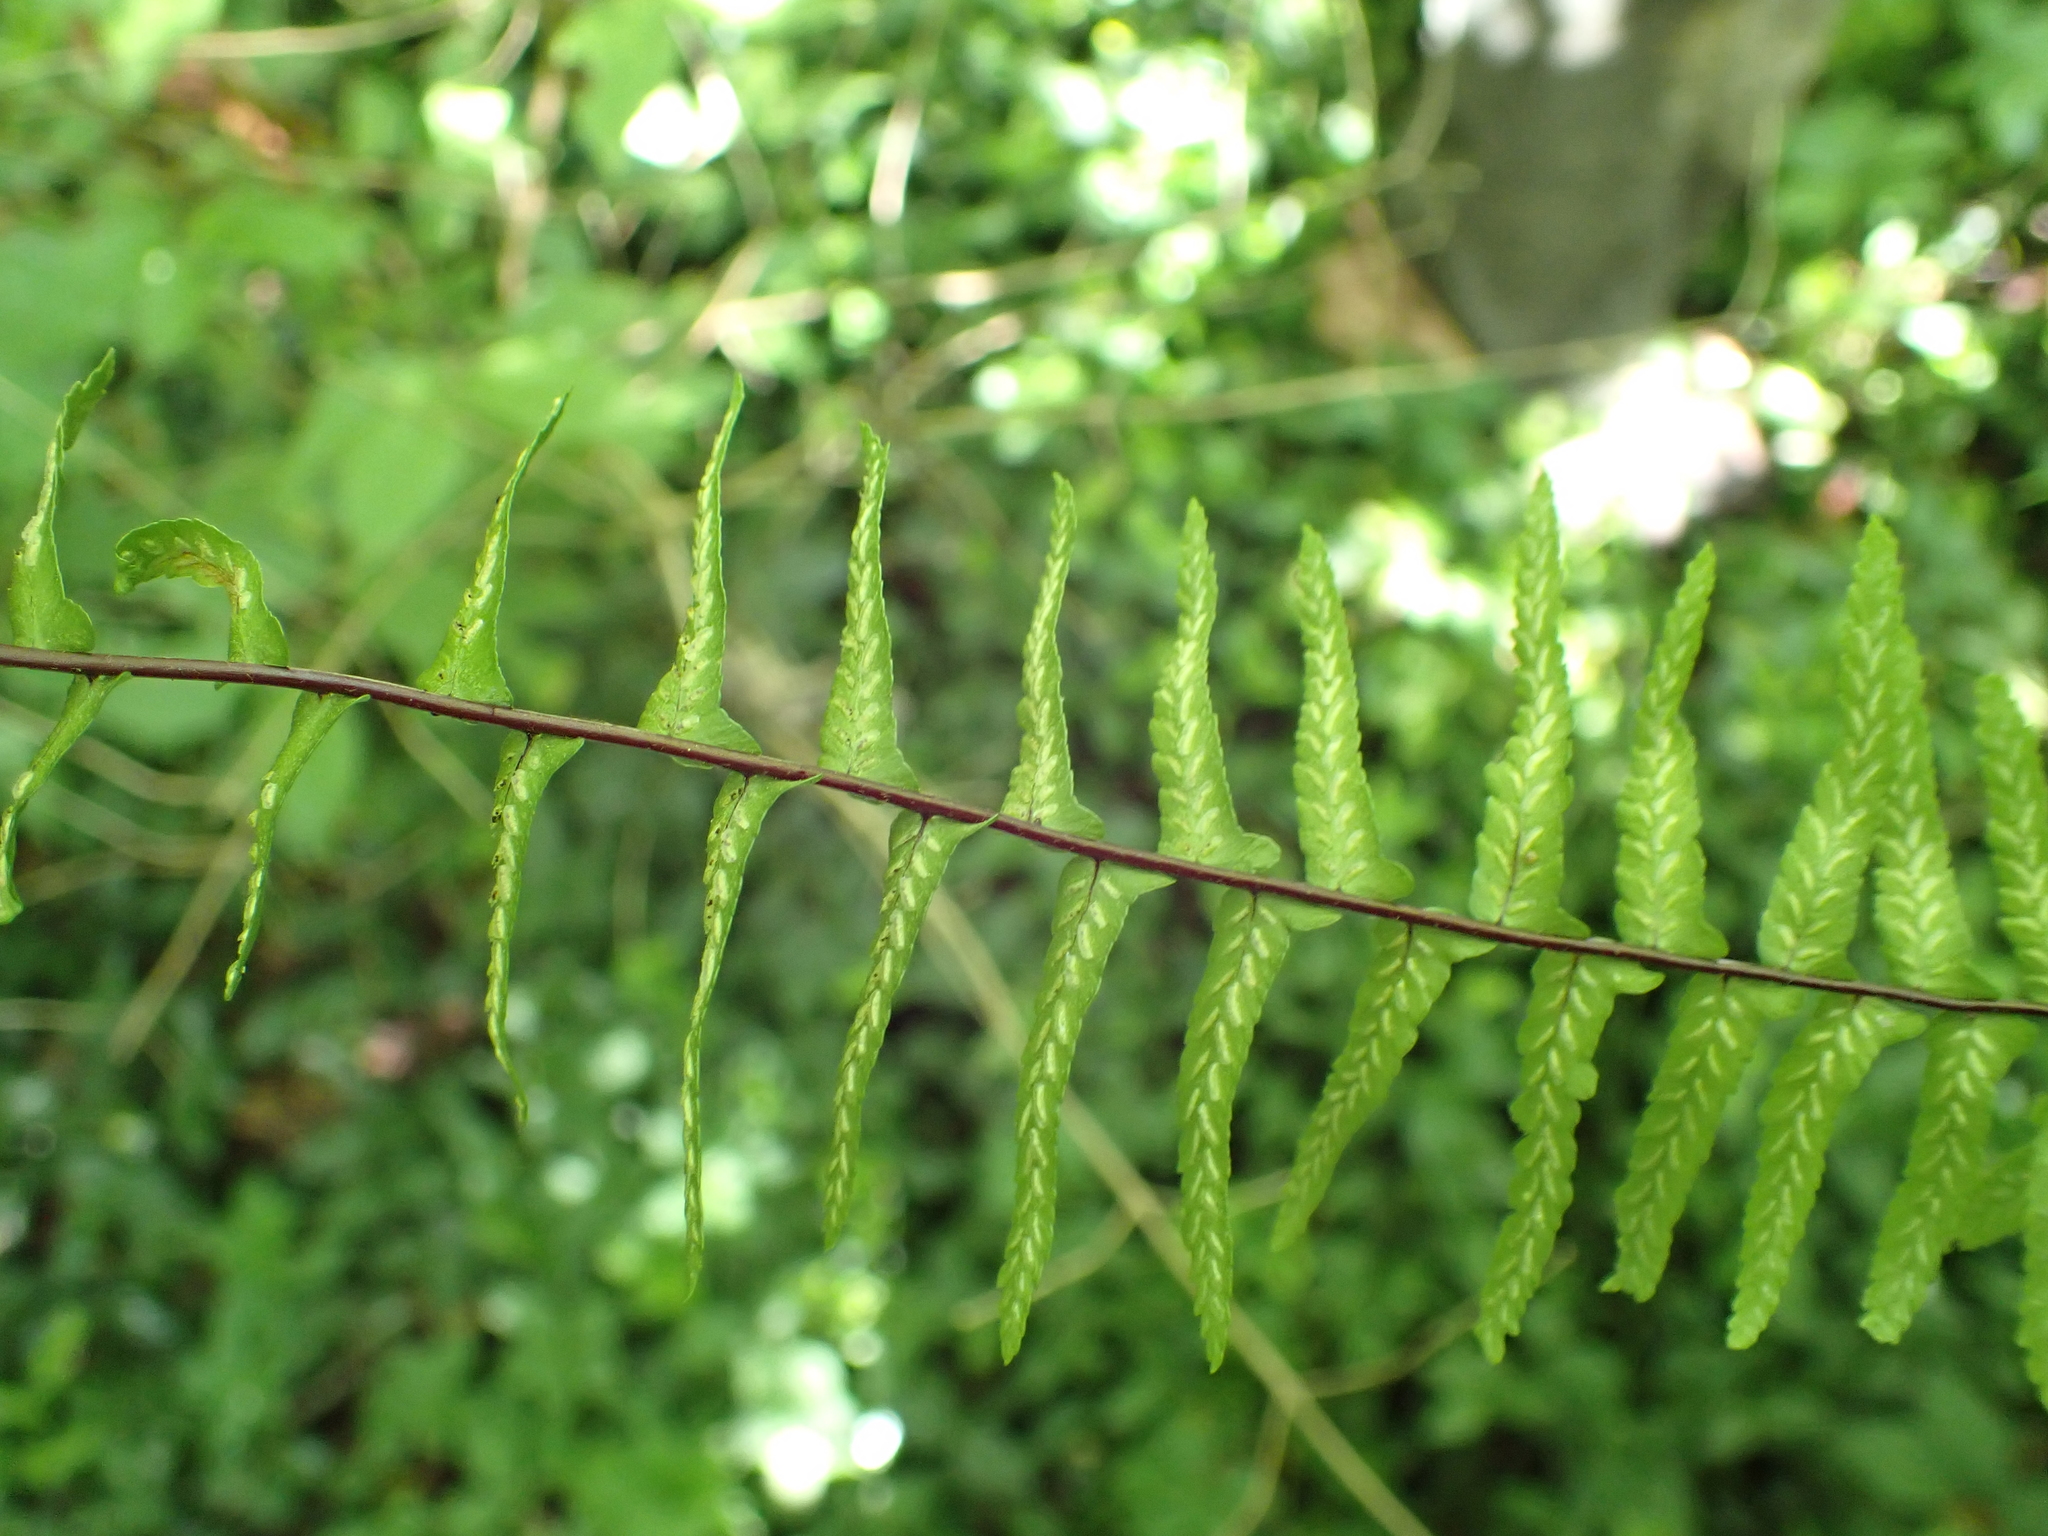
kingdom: Plantae
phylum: Tracheophyta
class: Polypodiopsida
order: Polypodiales
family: Aspleniaceae
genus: Asplenium
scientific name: Asplenium platyneuron
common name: Ebony spleenwort
